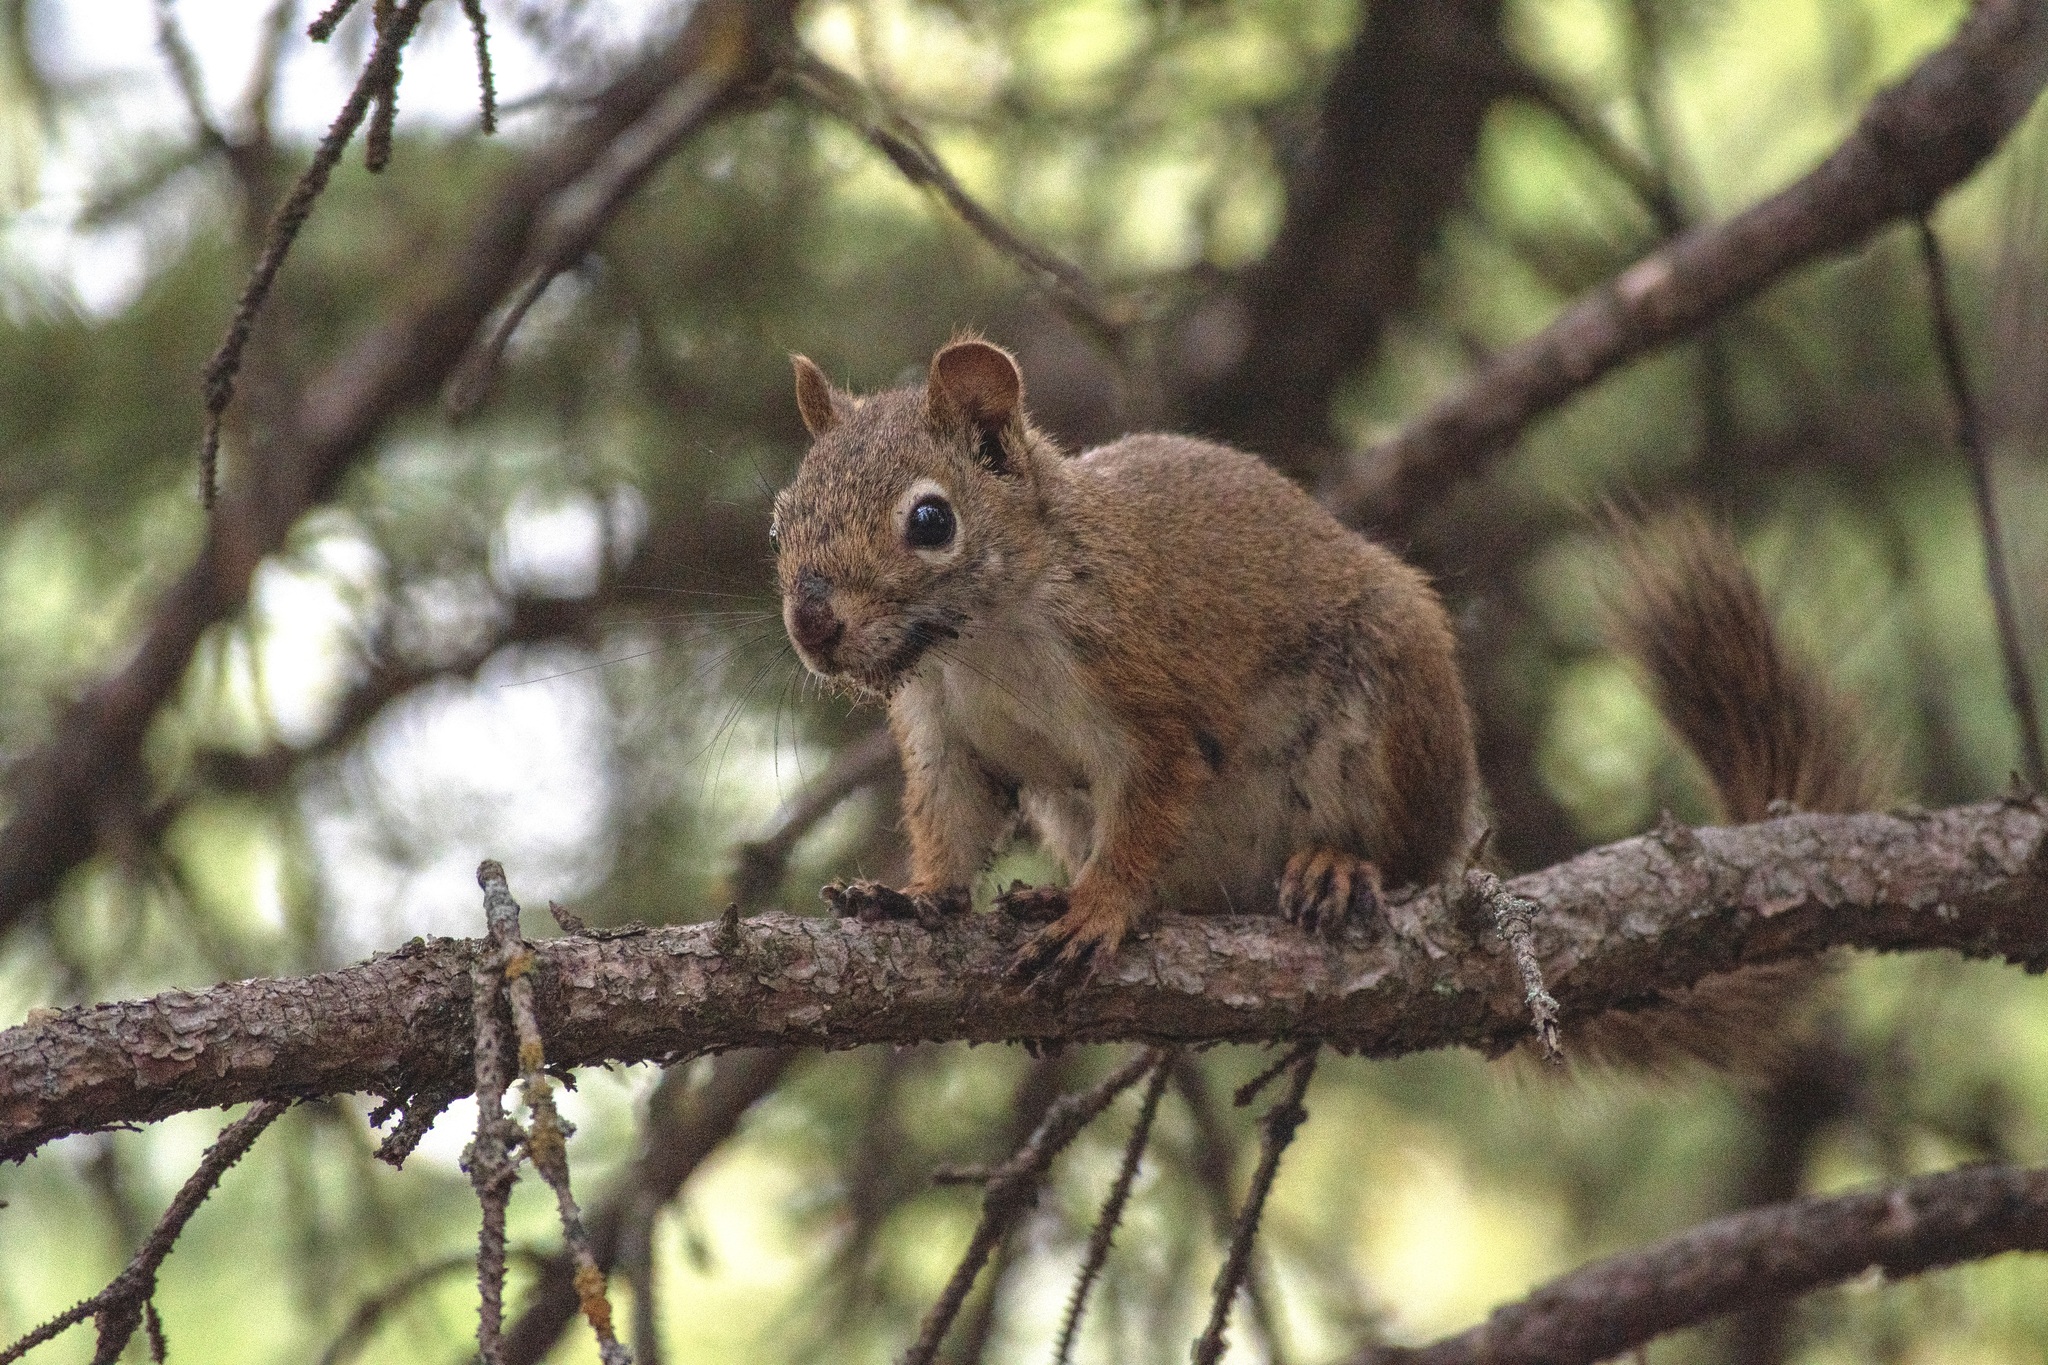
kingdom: Animalia
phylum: Chordata
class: Mammalia
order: Rodentia
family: Sciuridae
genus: Tamiasciurus
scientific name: Tamiasciurus hudsonicus
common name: Red squirrel
